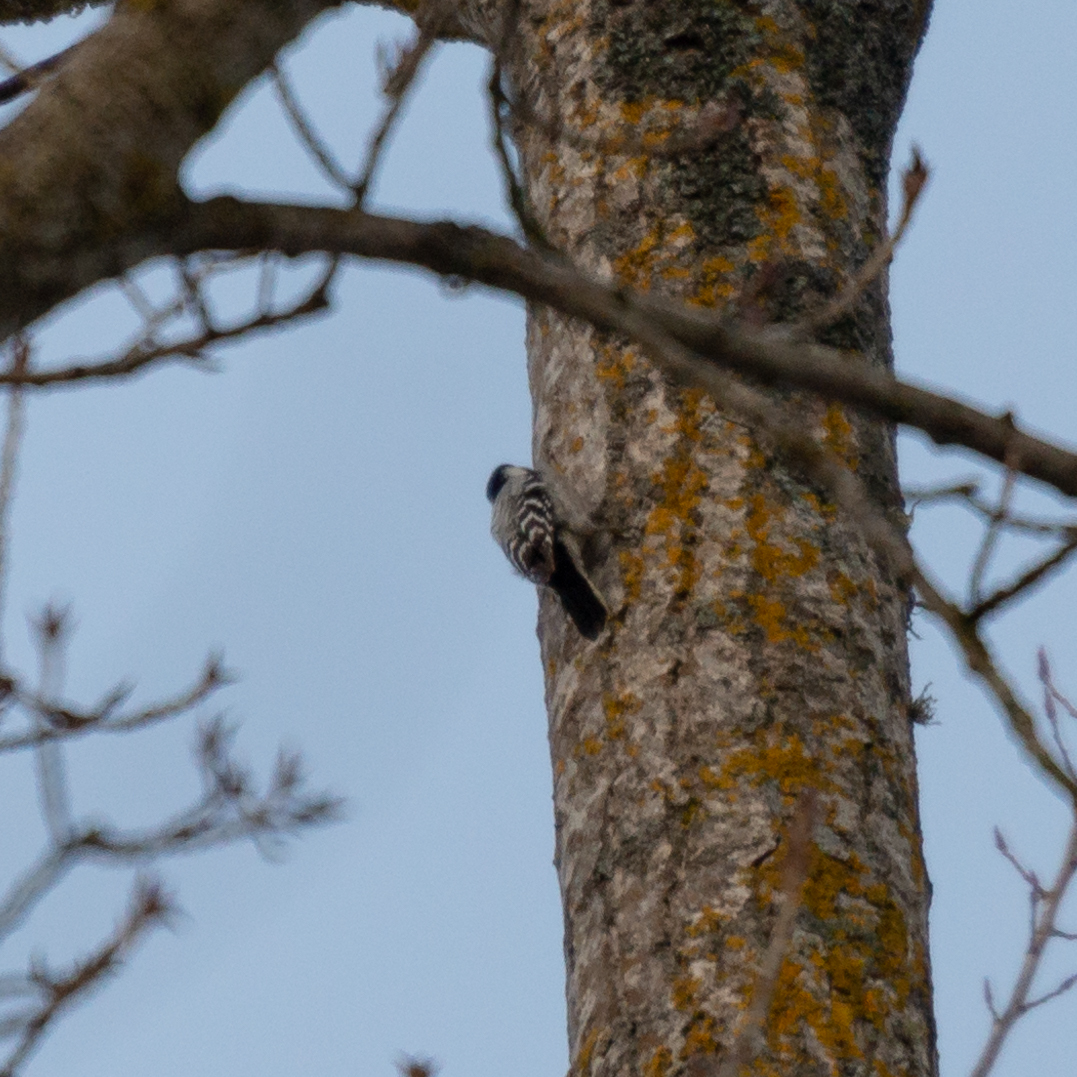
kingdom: Animalia
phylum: Chordata
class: Aves
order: Piciformes
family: Picidae
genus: Dryobates
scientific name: Dryobates minor
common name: Lesser spotted woodpecker
